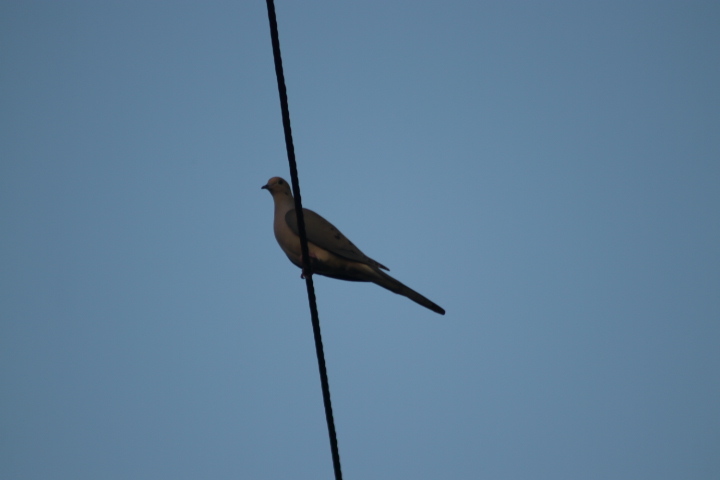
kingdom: Animalia
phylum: Chordata
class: Aves
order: Columbiformes
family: Columbidae
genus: Zenaida
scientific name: Zenaida macroura
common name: Mourning dove
